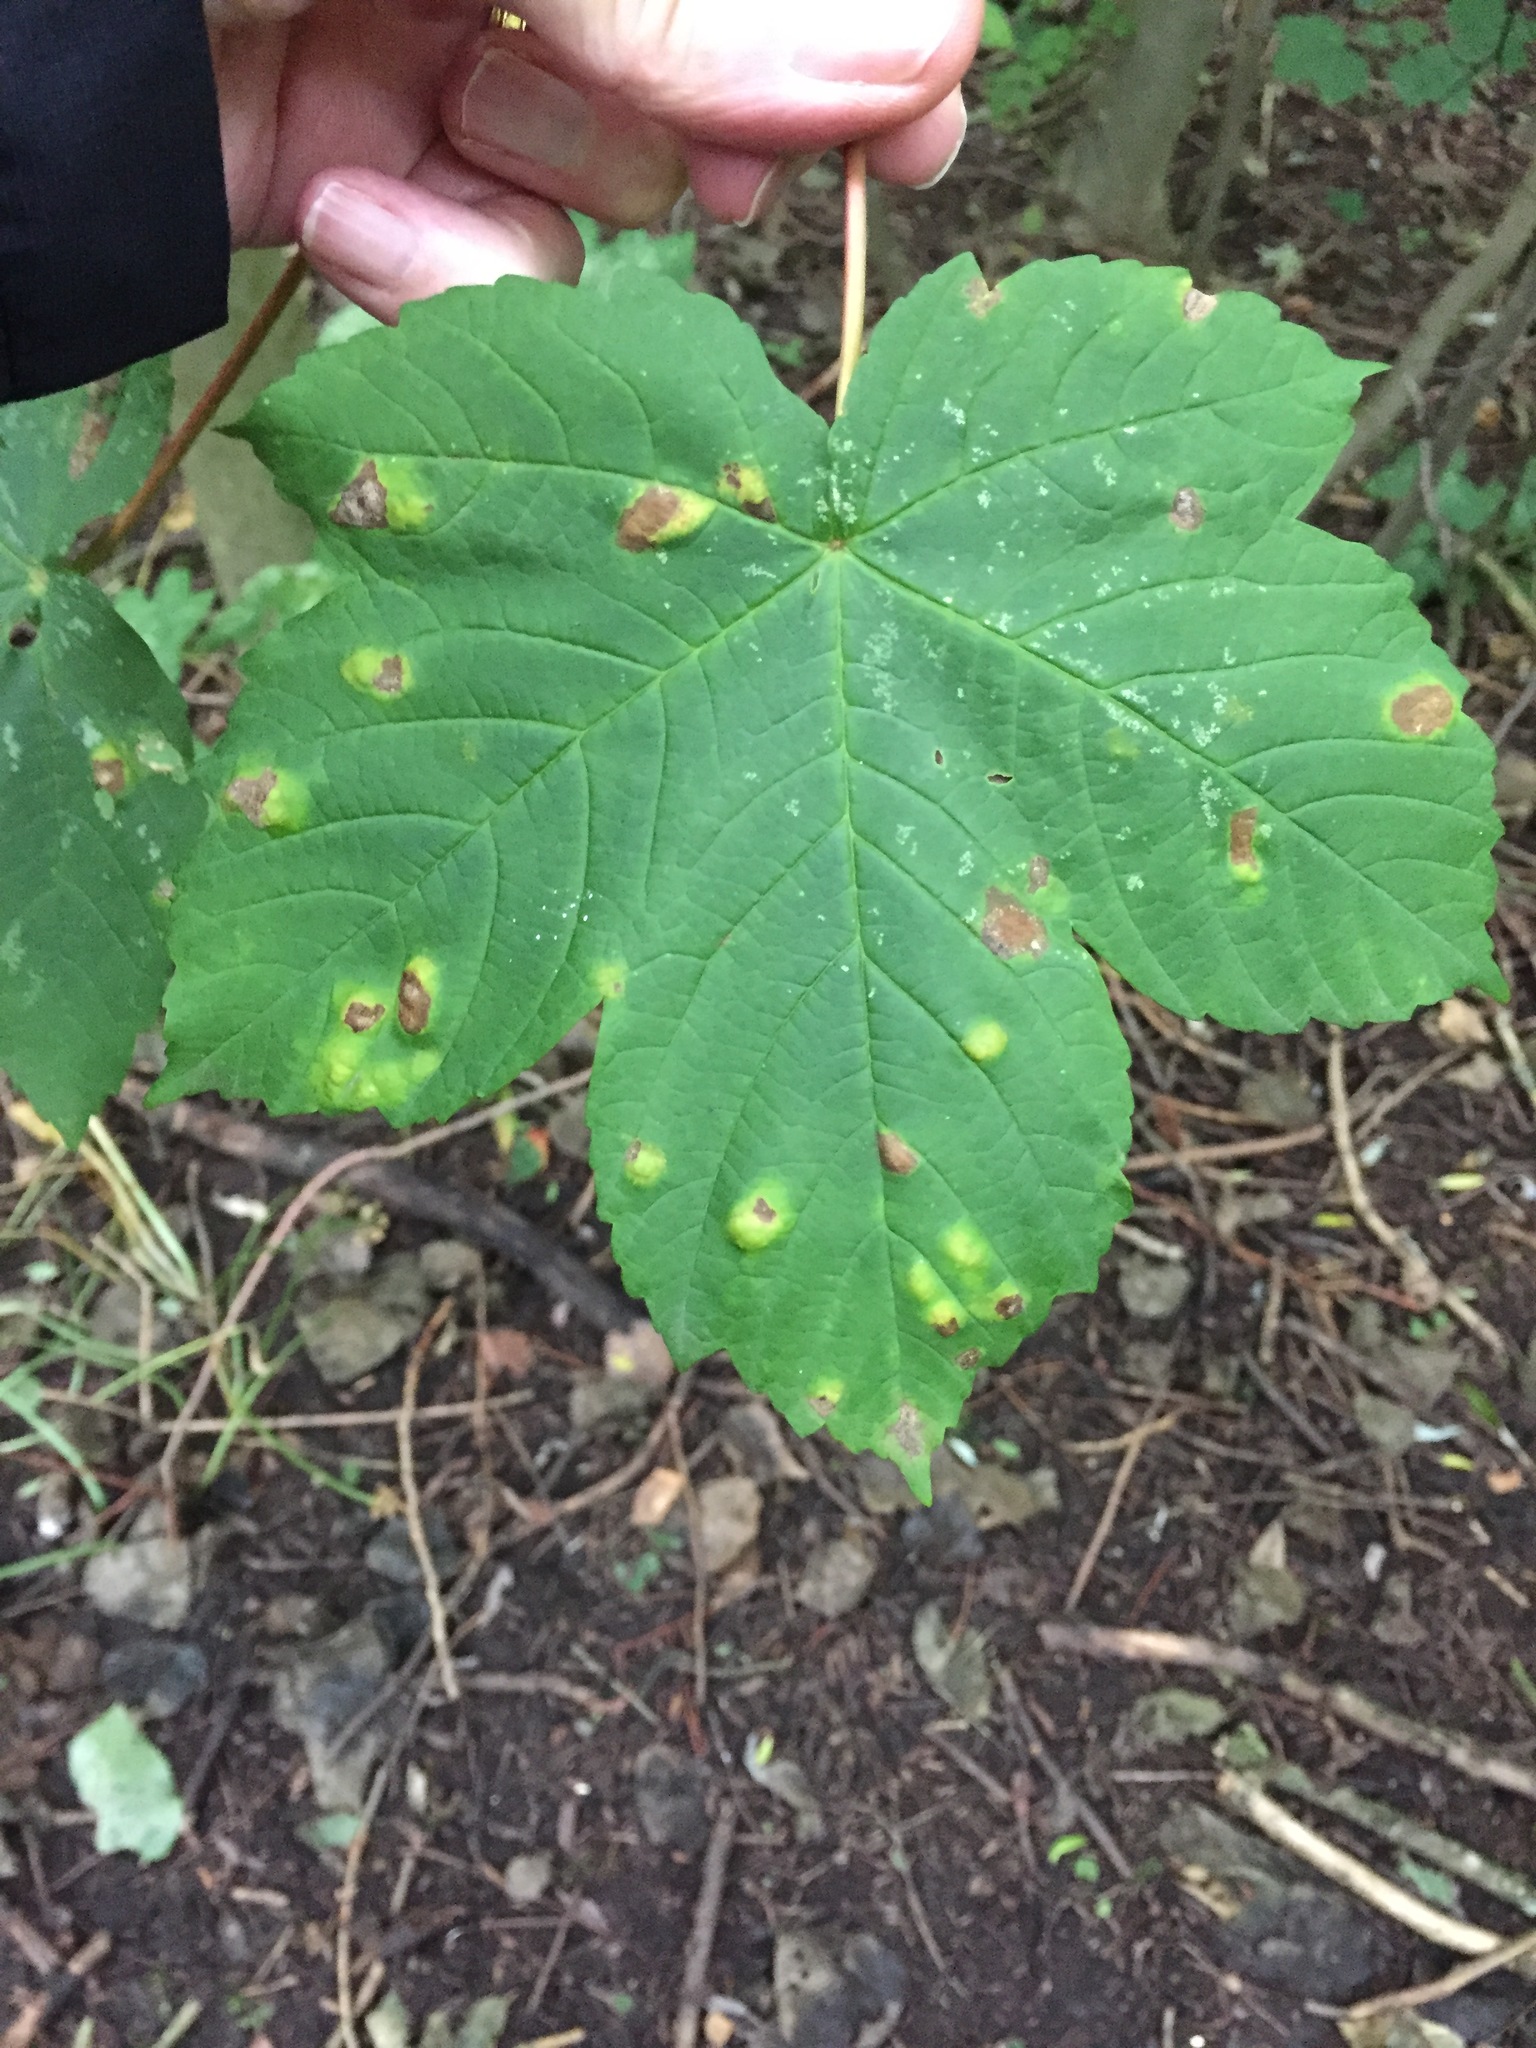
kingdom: Plantae
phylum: Tracheophyta
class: Magnoliopsida
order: Sapindales
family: Sapindaceae
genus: Acer
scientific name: Acer pseudoplatanus
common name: Sycamore
